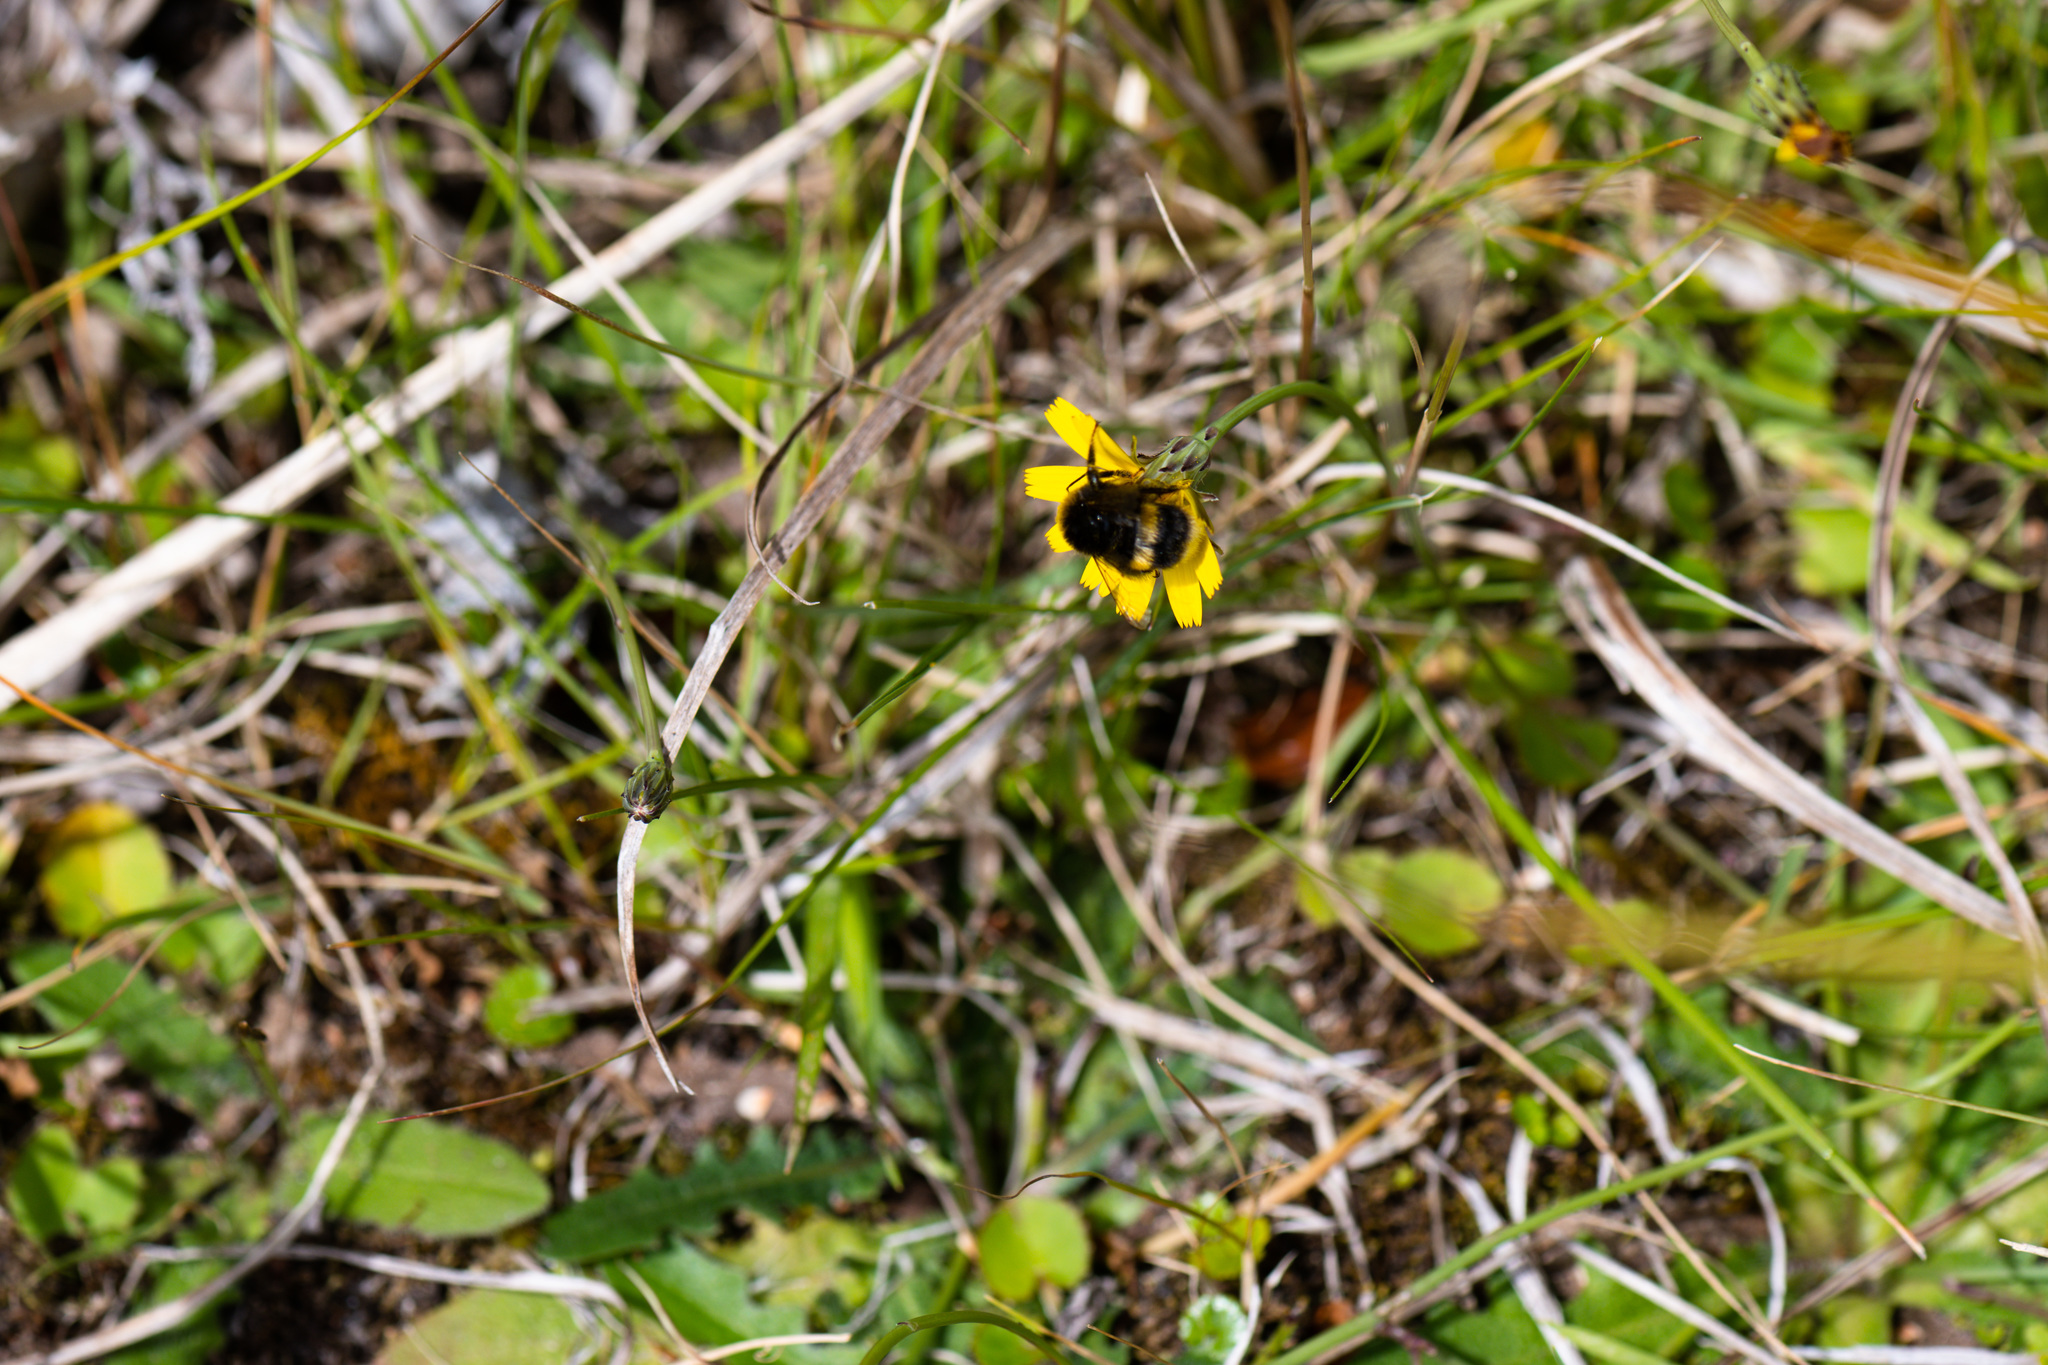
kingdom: Animalia
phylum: Arthropoda
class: Insecta
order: Hymenoptera
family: Apidae
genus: Bombus
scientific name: Bombus terrestris
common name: Buff-tailed bumblebee
